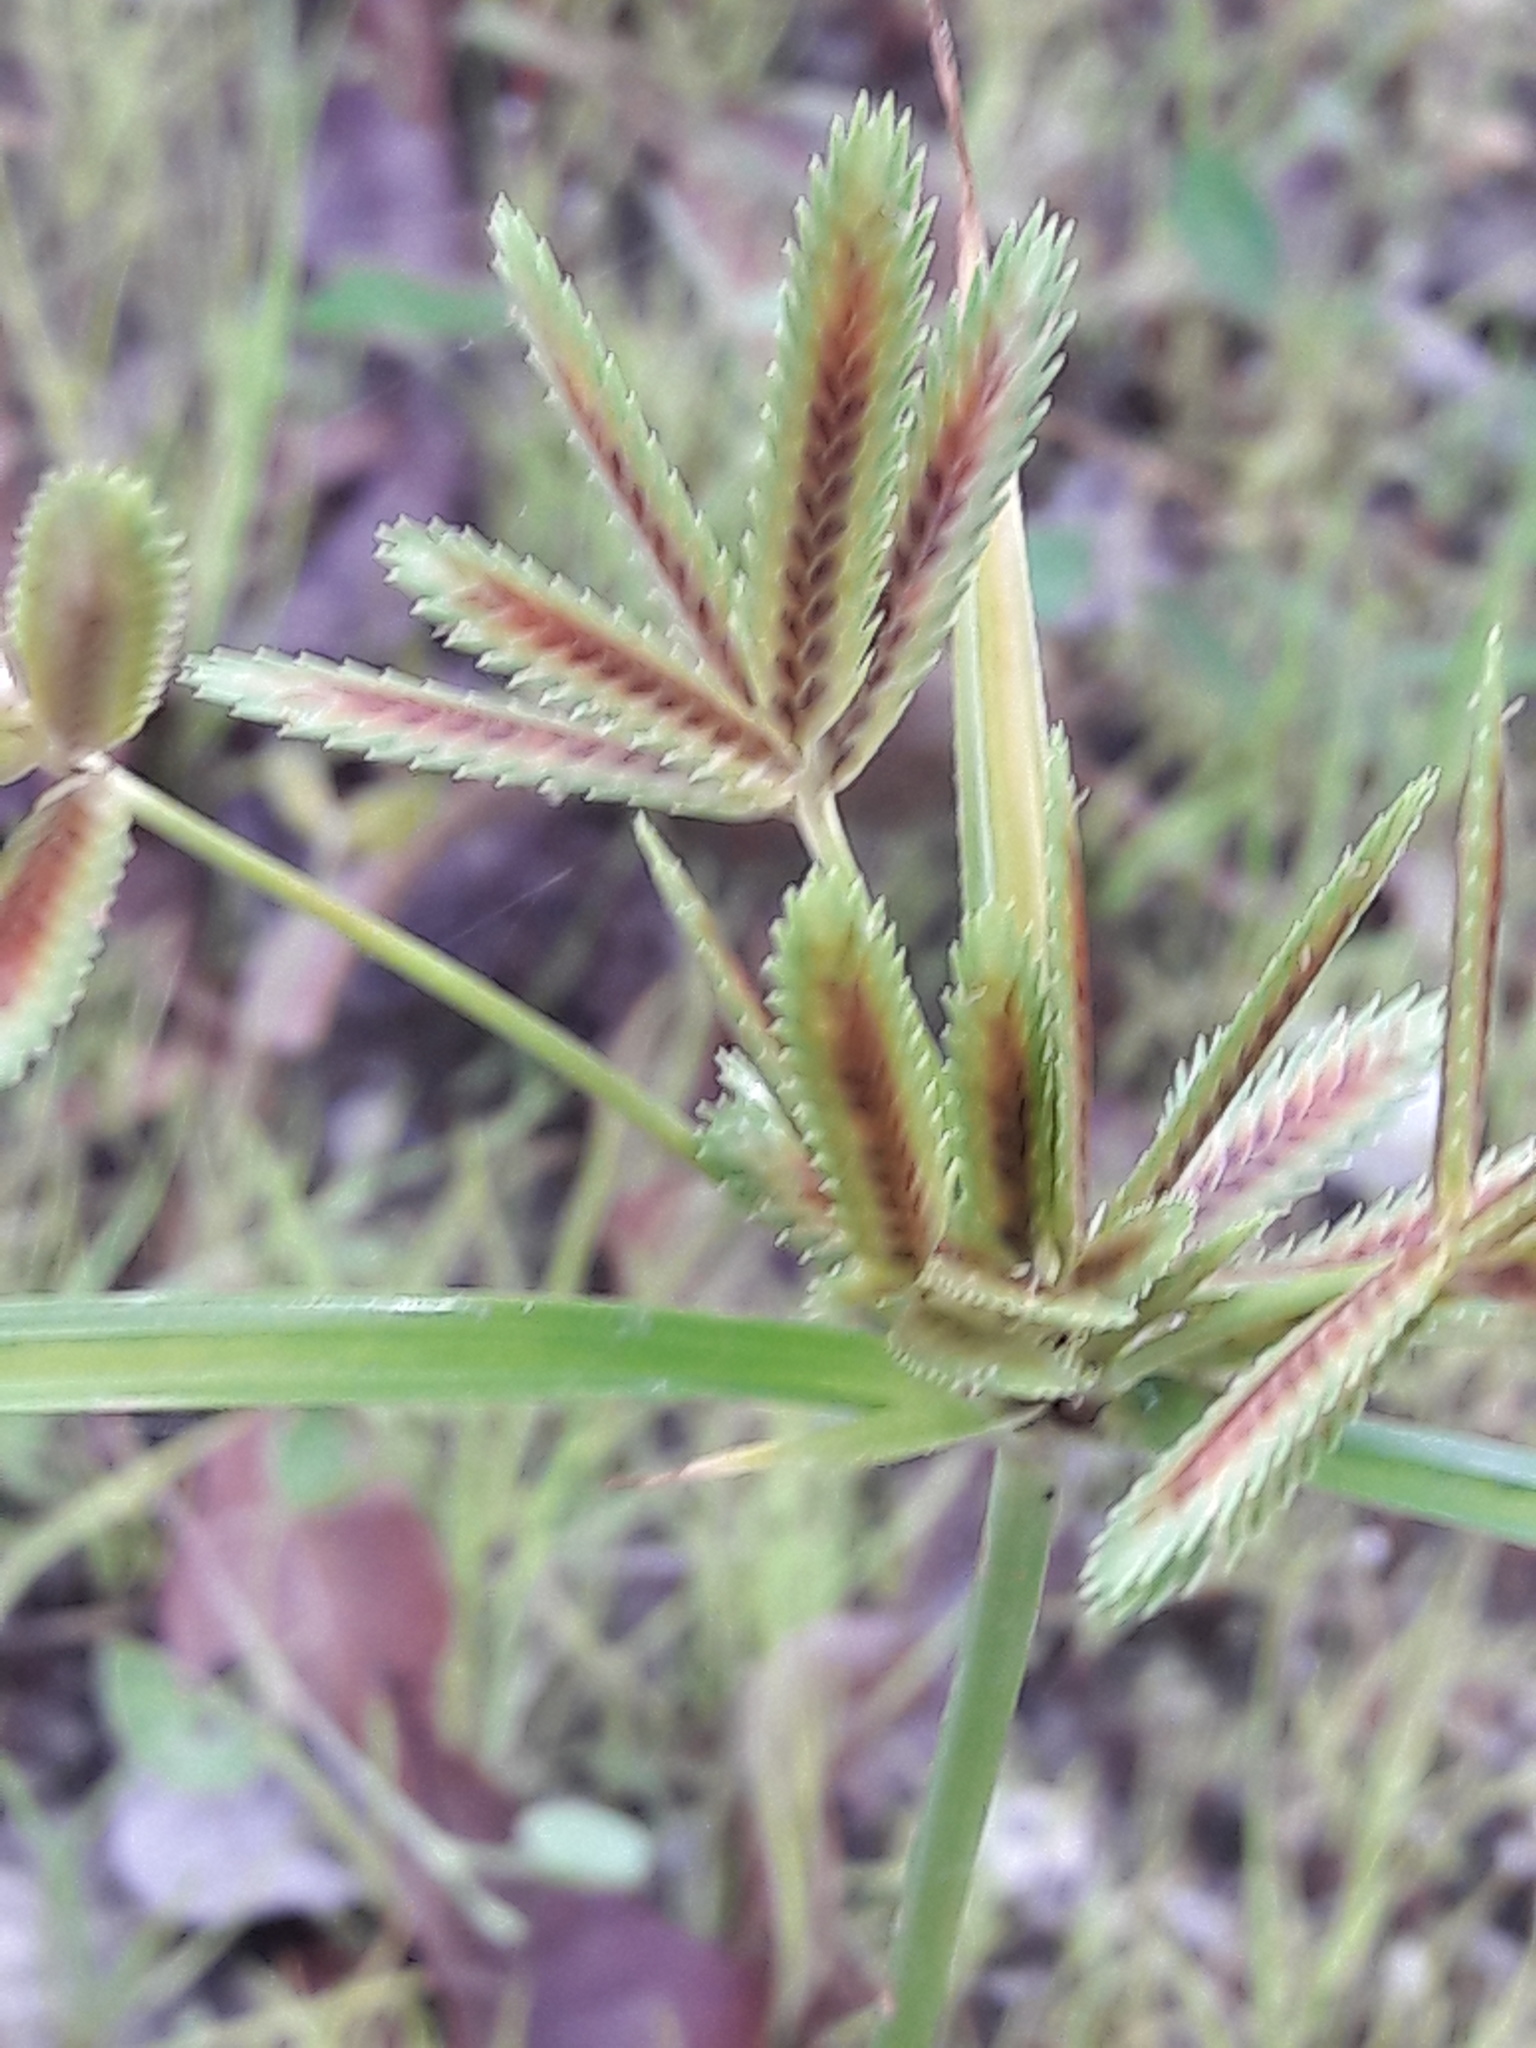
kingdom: Plantae
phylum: Tracheophyta
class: Liliopsida
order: Poales
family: Cyperaceae
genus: Cyperus
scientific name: Cyperus compressus
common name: Poorland flatsedge
